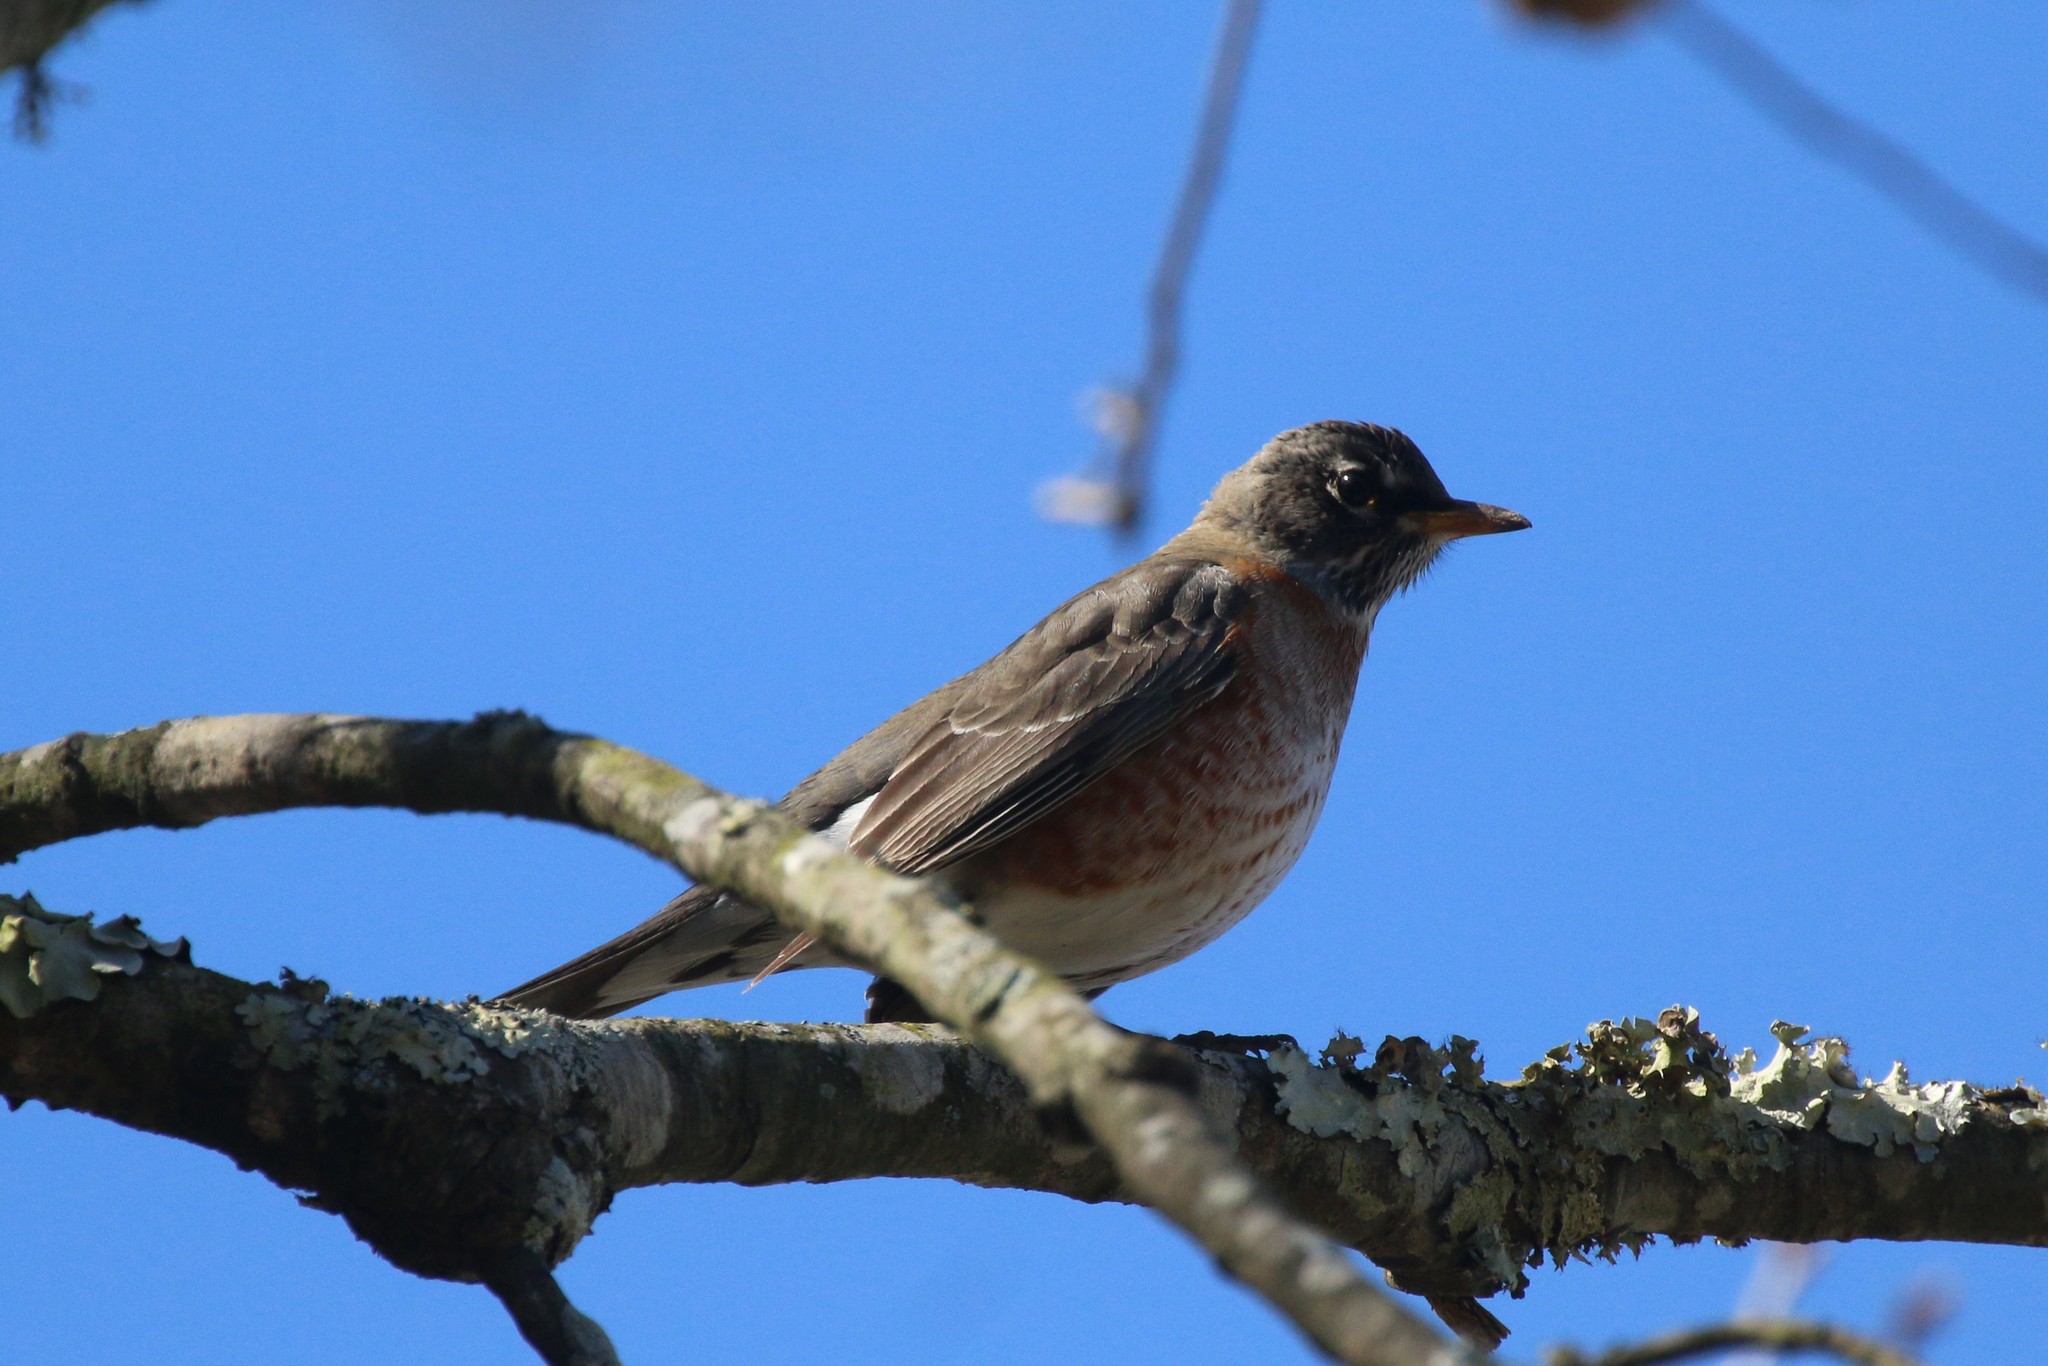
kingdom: Animalia
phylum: Chordata
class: Aves
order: Passeriformes
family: Turdidae
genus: Turdus
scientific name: Turdus migratorius
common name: American robin
